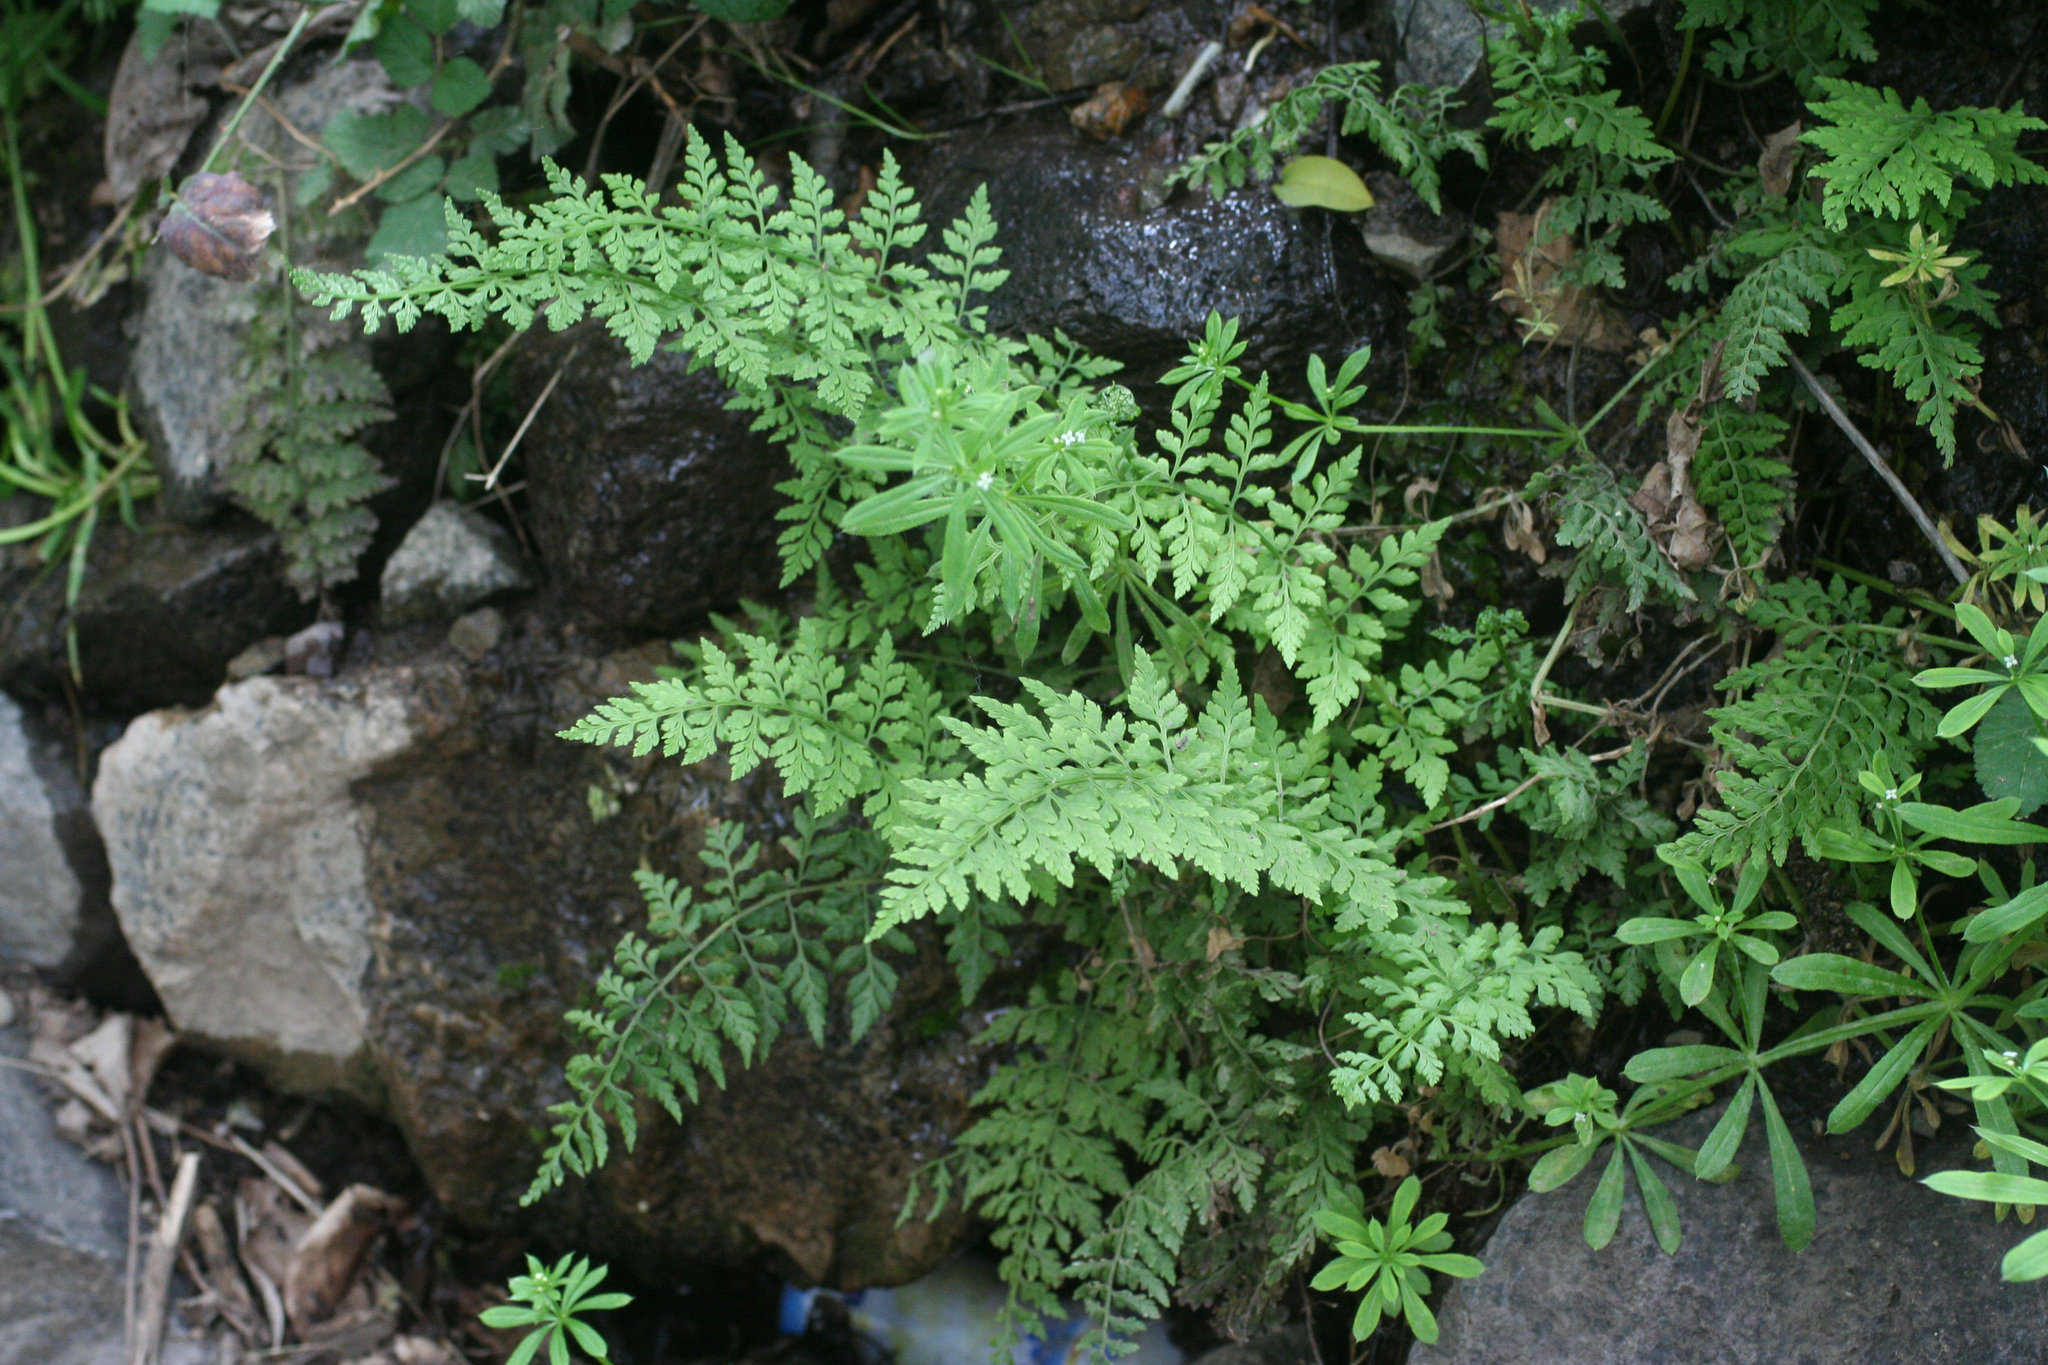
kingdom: Plantae
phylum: Tracheophyta
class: Polypodiopsida
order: Polypodiales
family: Cystopteridaceae
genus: Cystopteris
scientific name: Cystopteris diaphana
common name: Greenish bladder-fern
